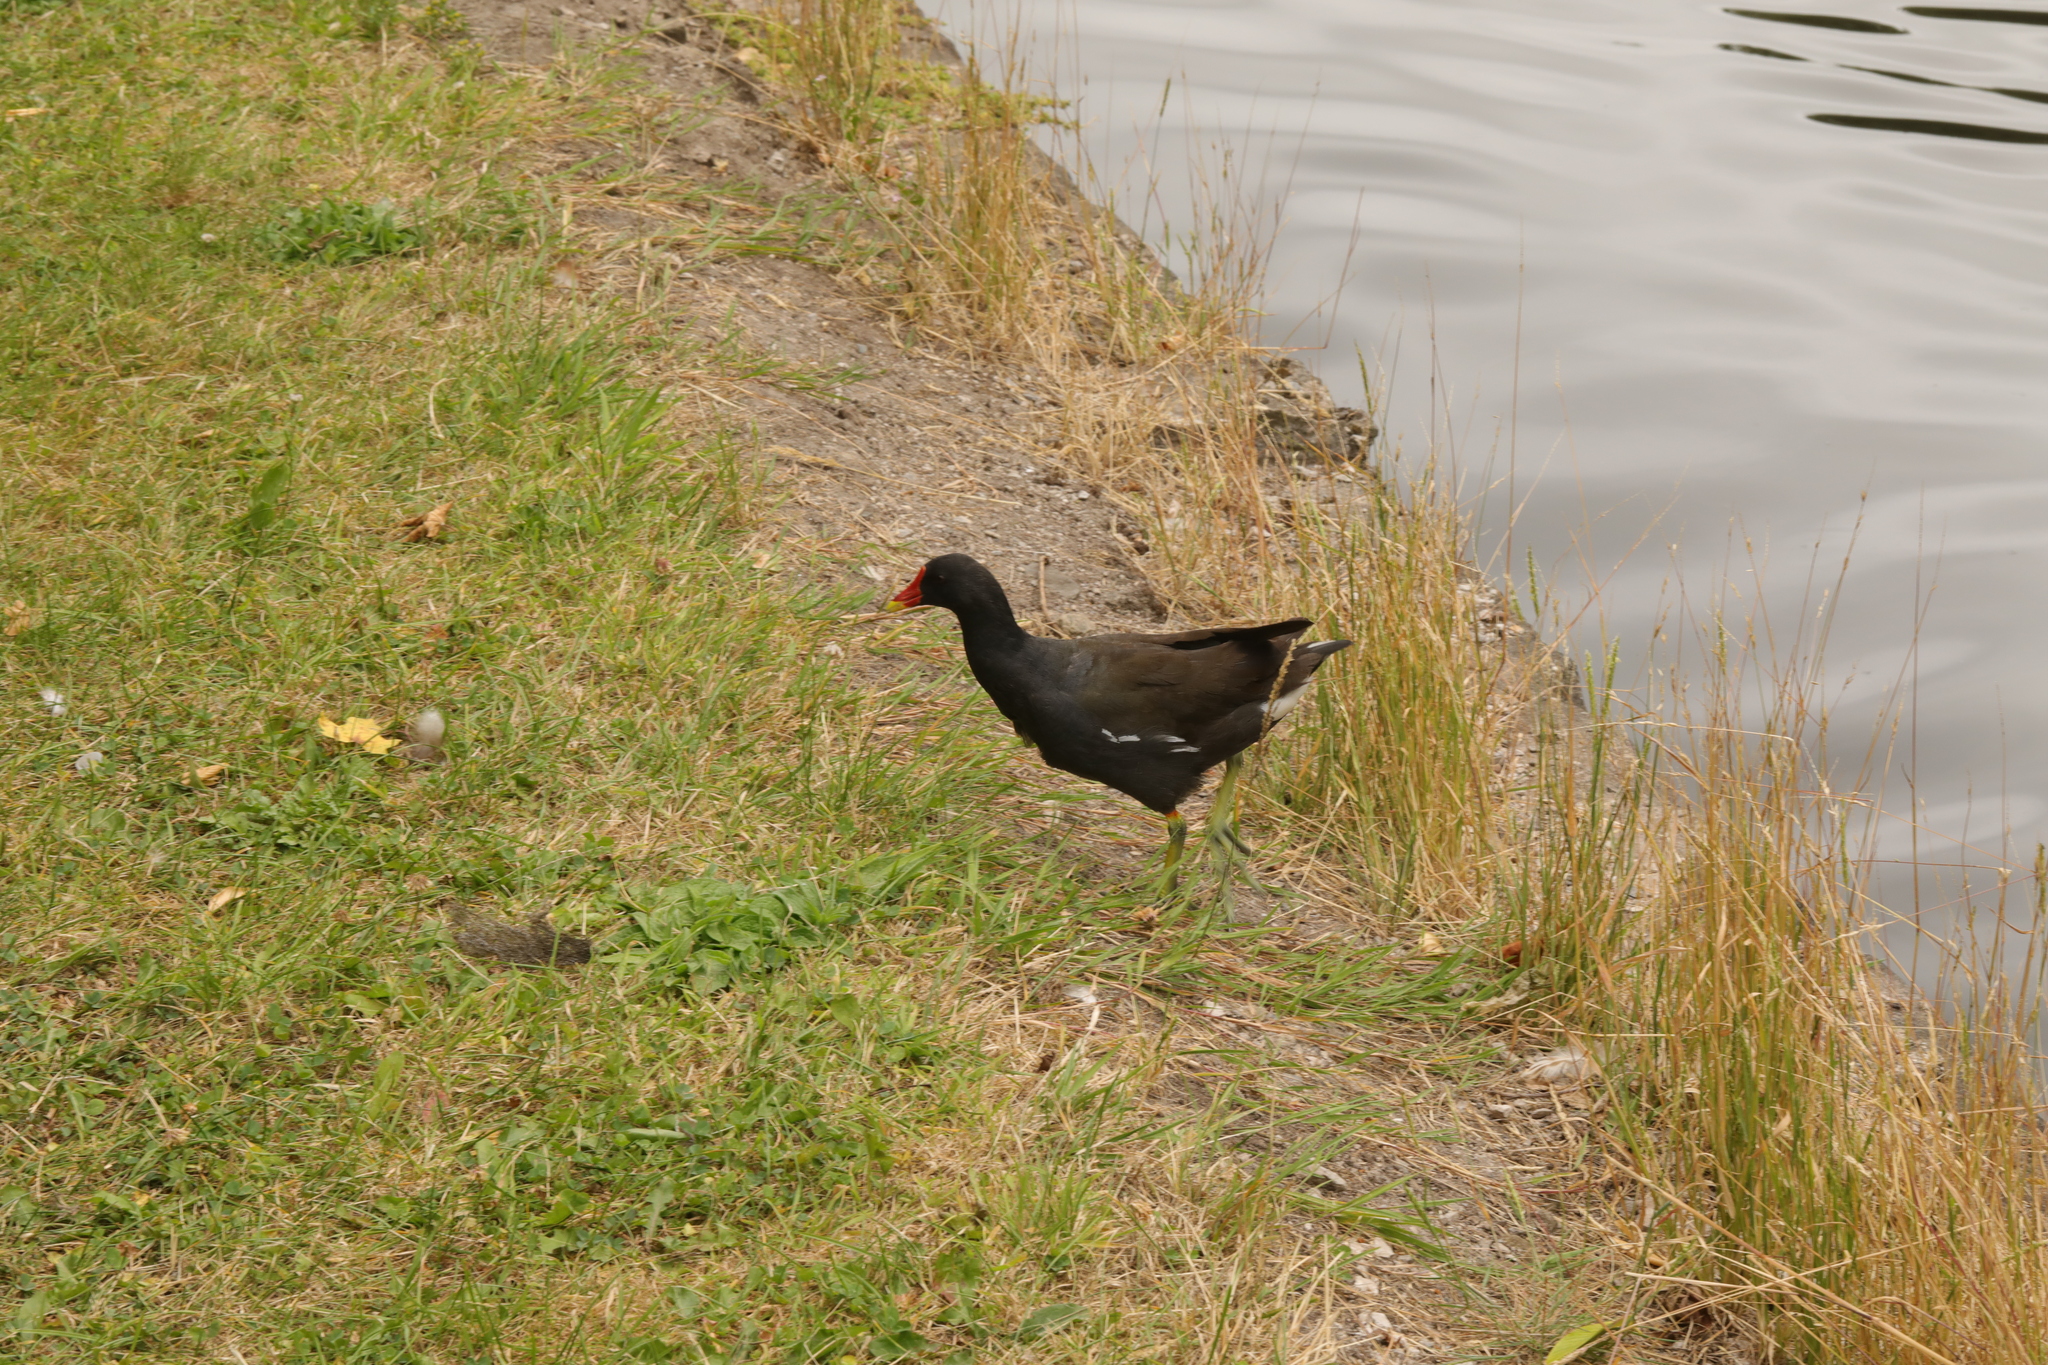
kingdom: Animalia
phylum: Chordata
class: Aves
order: Gruiformes
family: Rallidae
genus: Gallinula
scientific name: Gallinula chloropus
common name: Common moorhen
